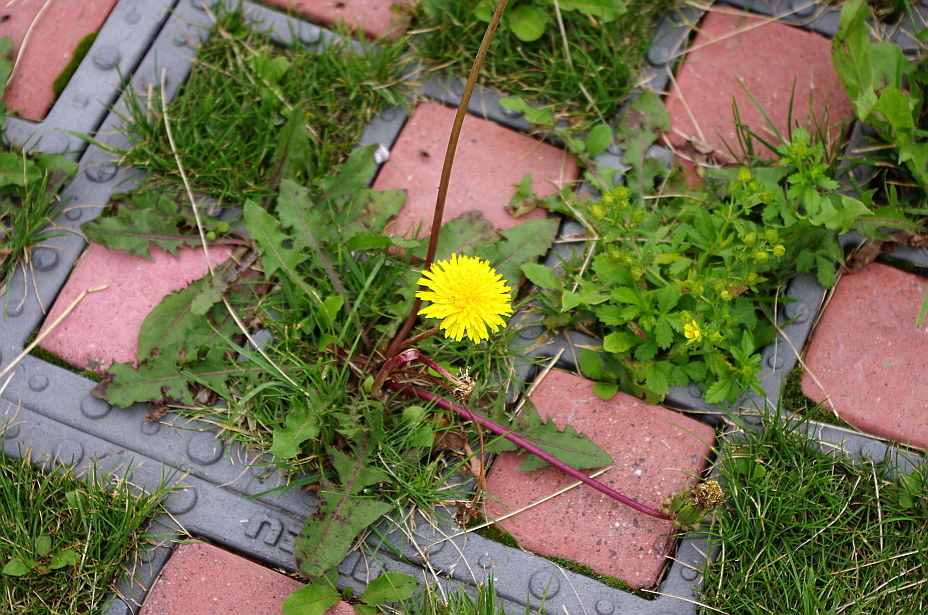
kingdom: Plantae
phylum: Tracheophyta
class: Magnoliopsida
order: Asterales
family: Asteraceae
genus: Taraxacum
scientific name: Taraxacum officinale
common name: Common dandelion
